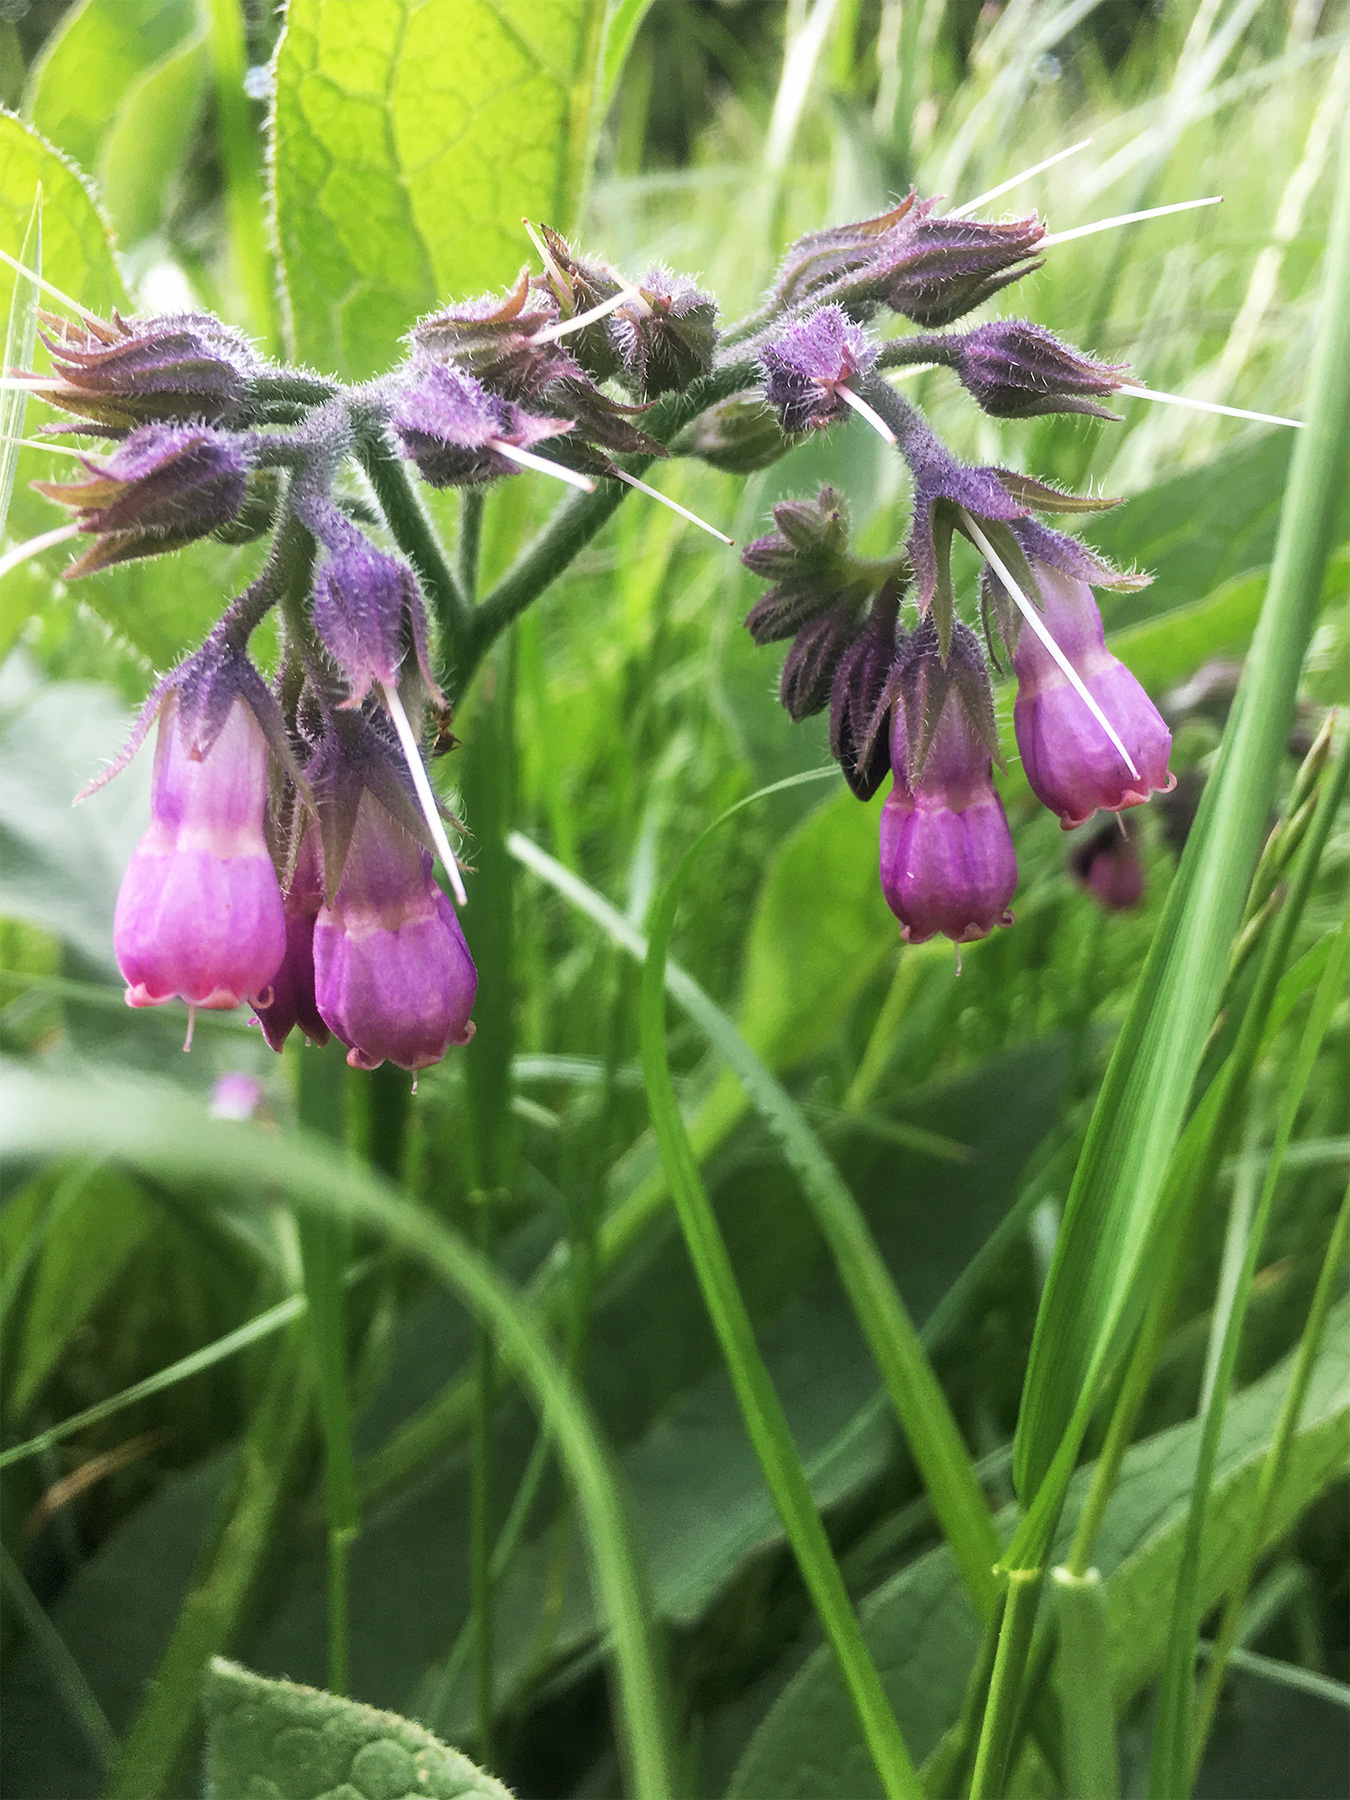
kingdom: Plantae
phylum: Tracheophyta
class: Magnoliopsida
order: Boraginales
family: Boraginaceae
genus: Symphytum
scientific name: Symphytum officinale
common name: Common comfrey
